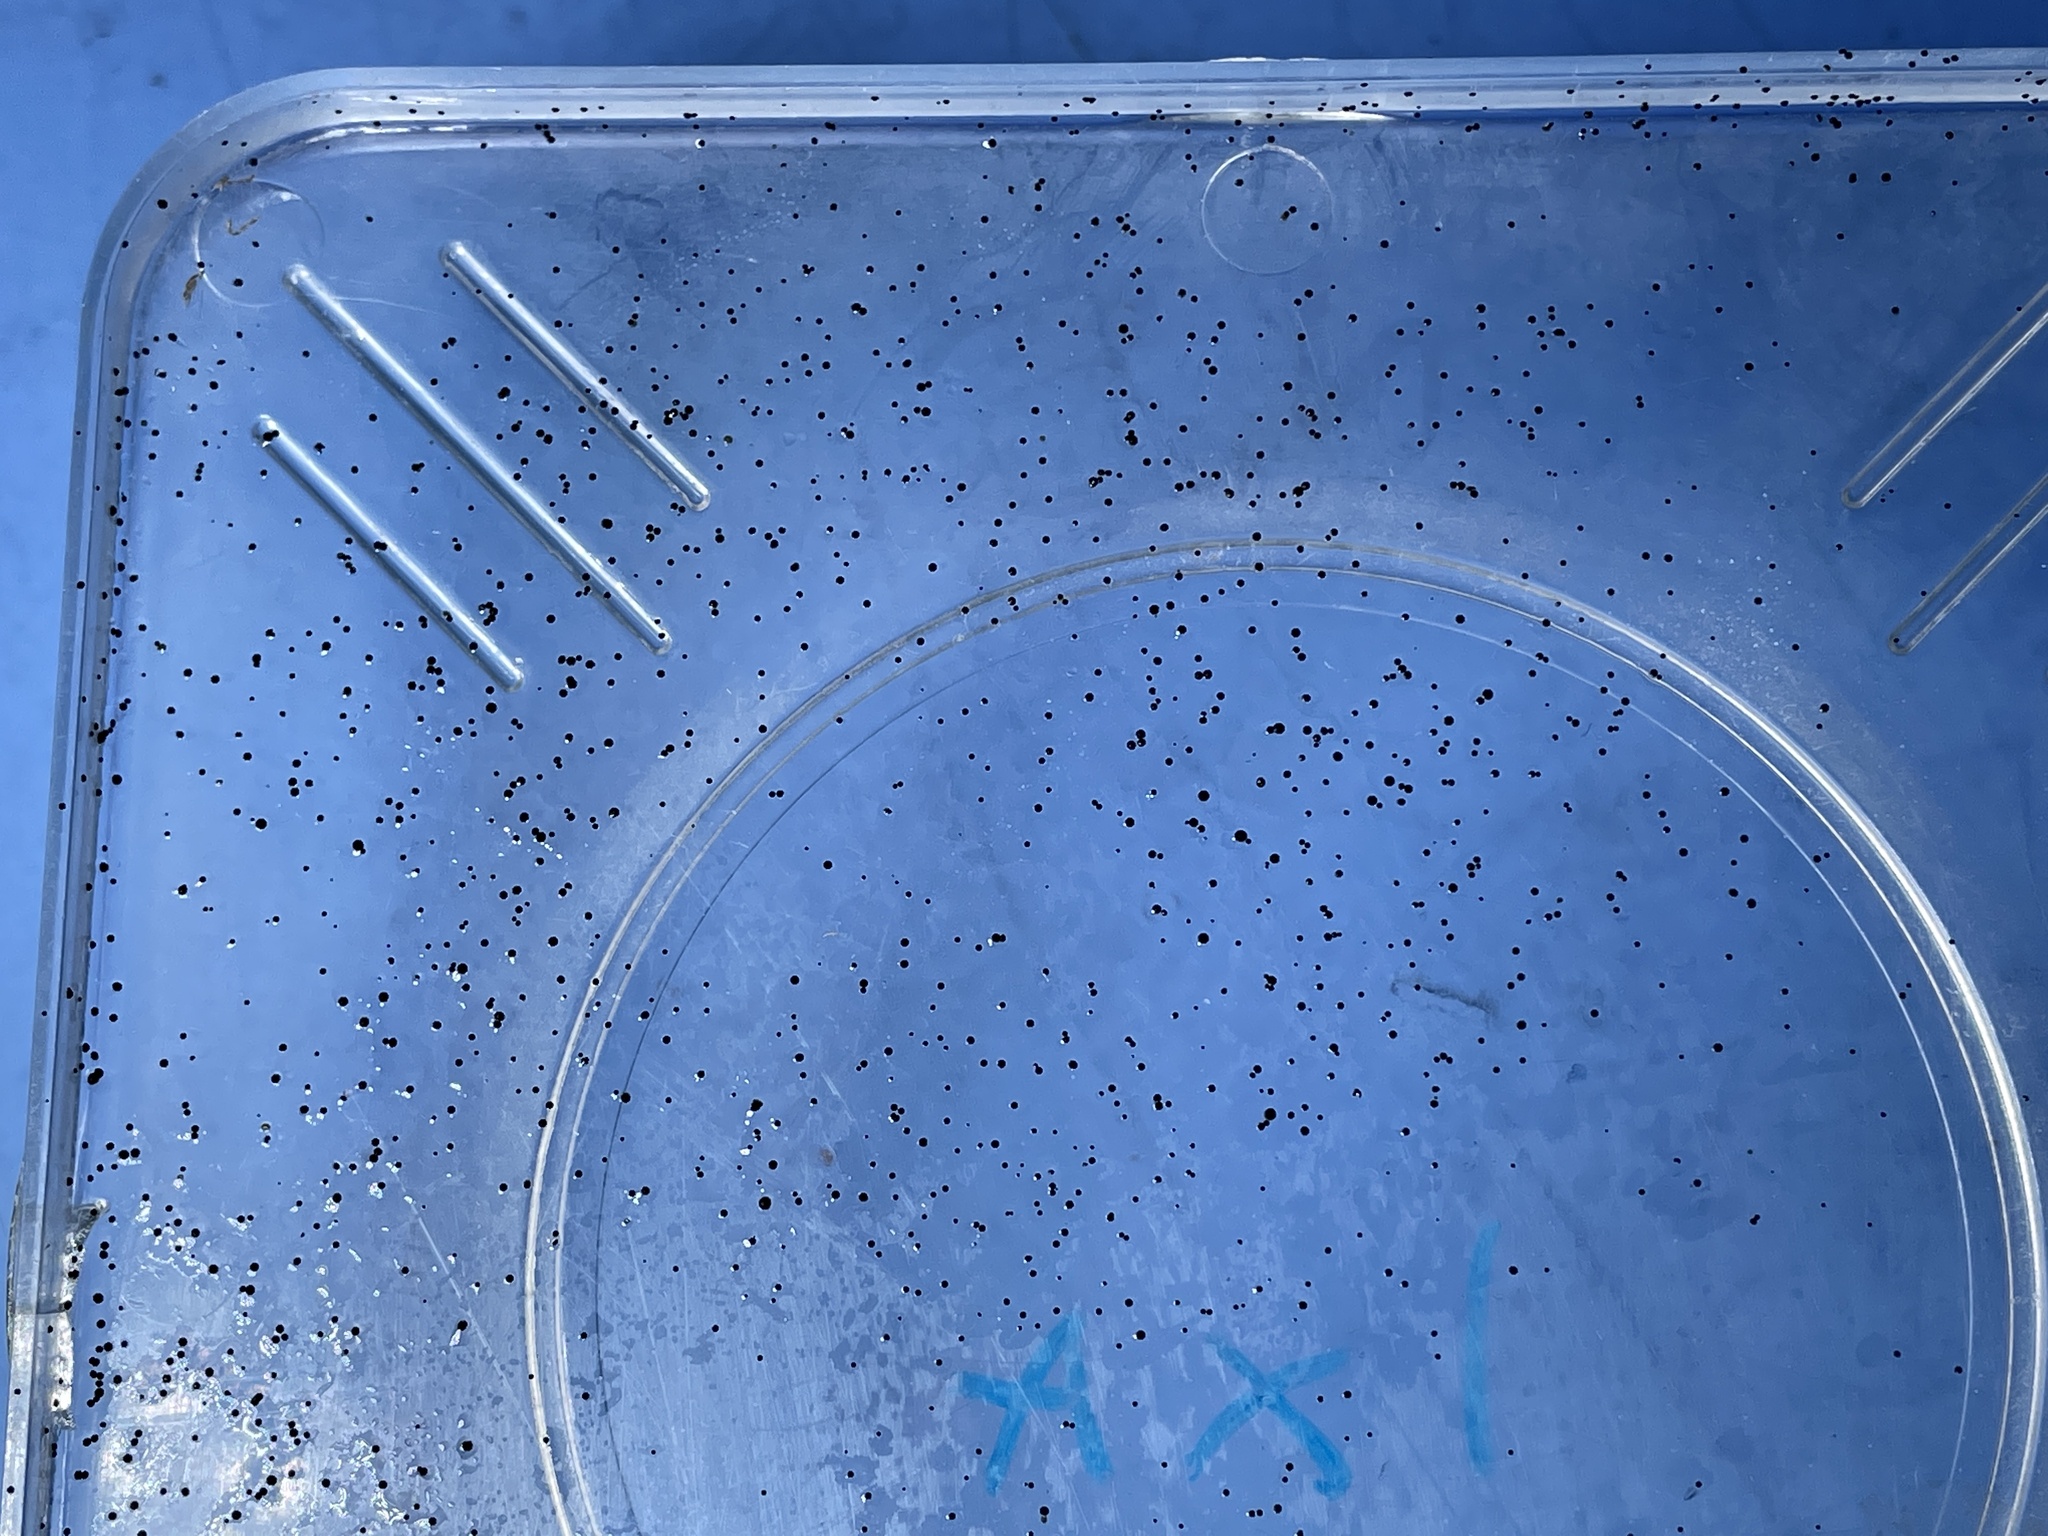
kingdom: Fungi
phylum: Mucoromycota
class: Mucoromycetes
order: Mucorales
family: Pilobolaceae
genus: Pilobolus
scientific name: Pilobolus
